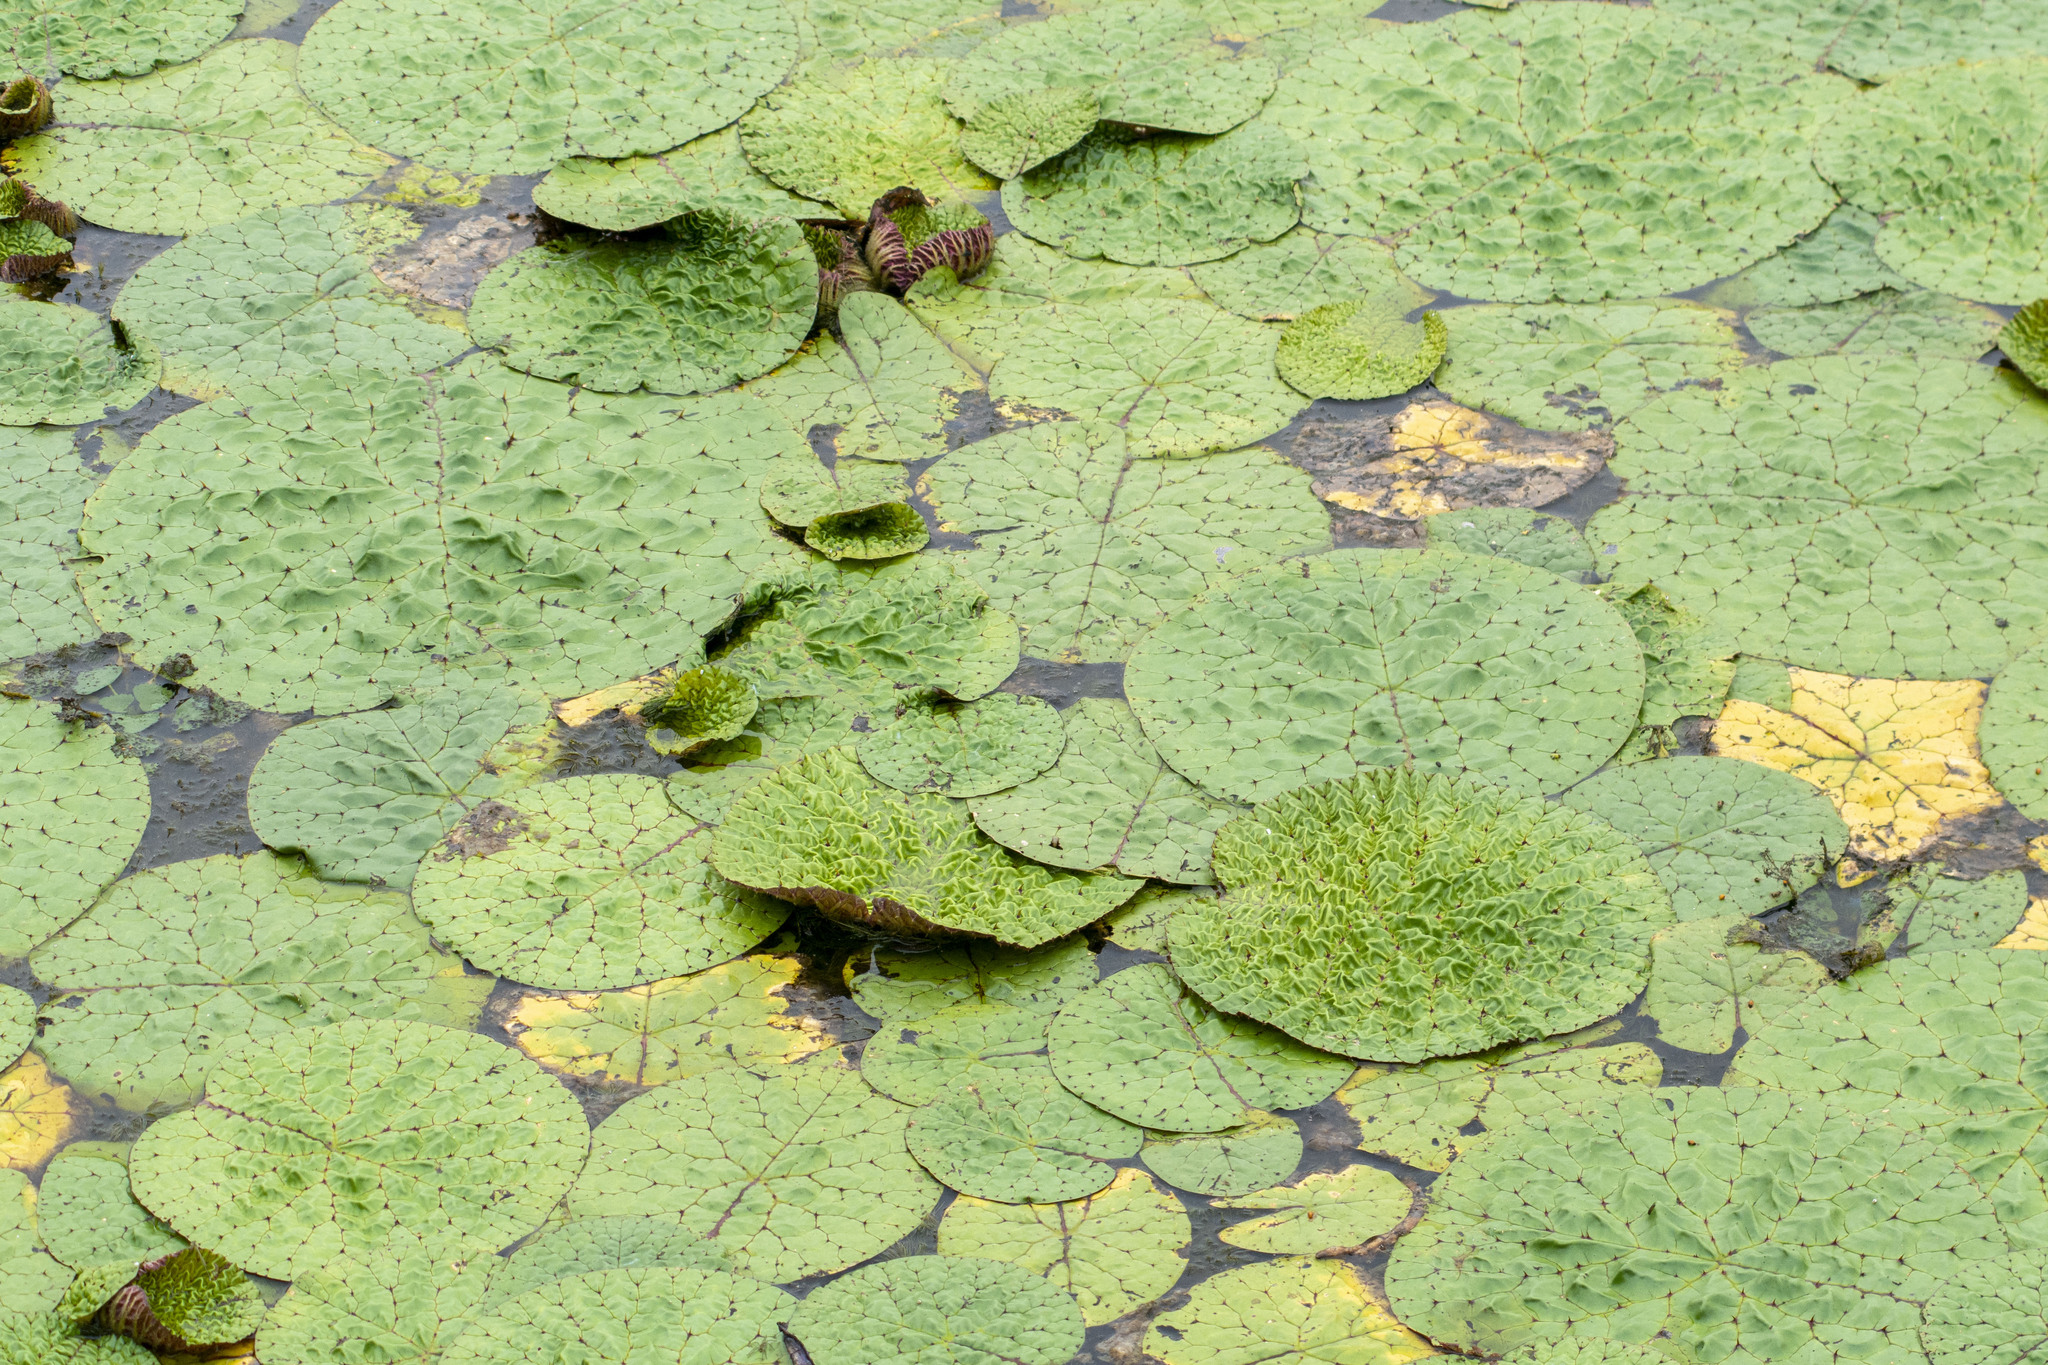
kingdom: Plantae
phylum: Tracheophyta
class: Magnoliopsida
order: Nymphaeales
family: Nymphaeaceae
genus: Euryale
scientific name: Euryale ferox
